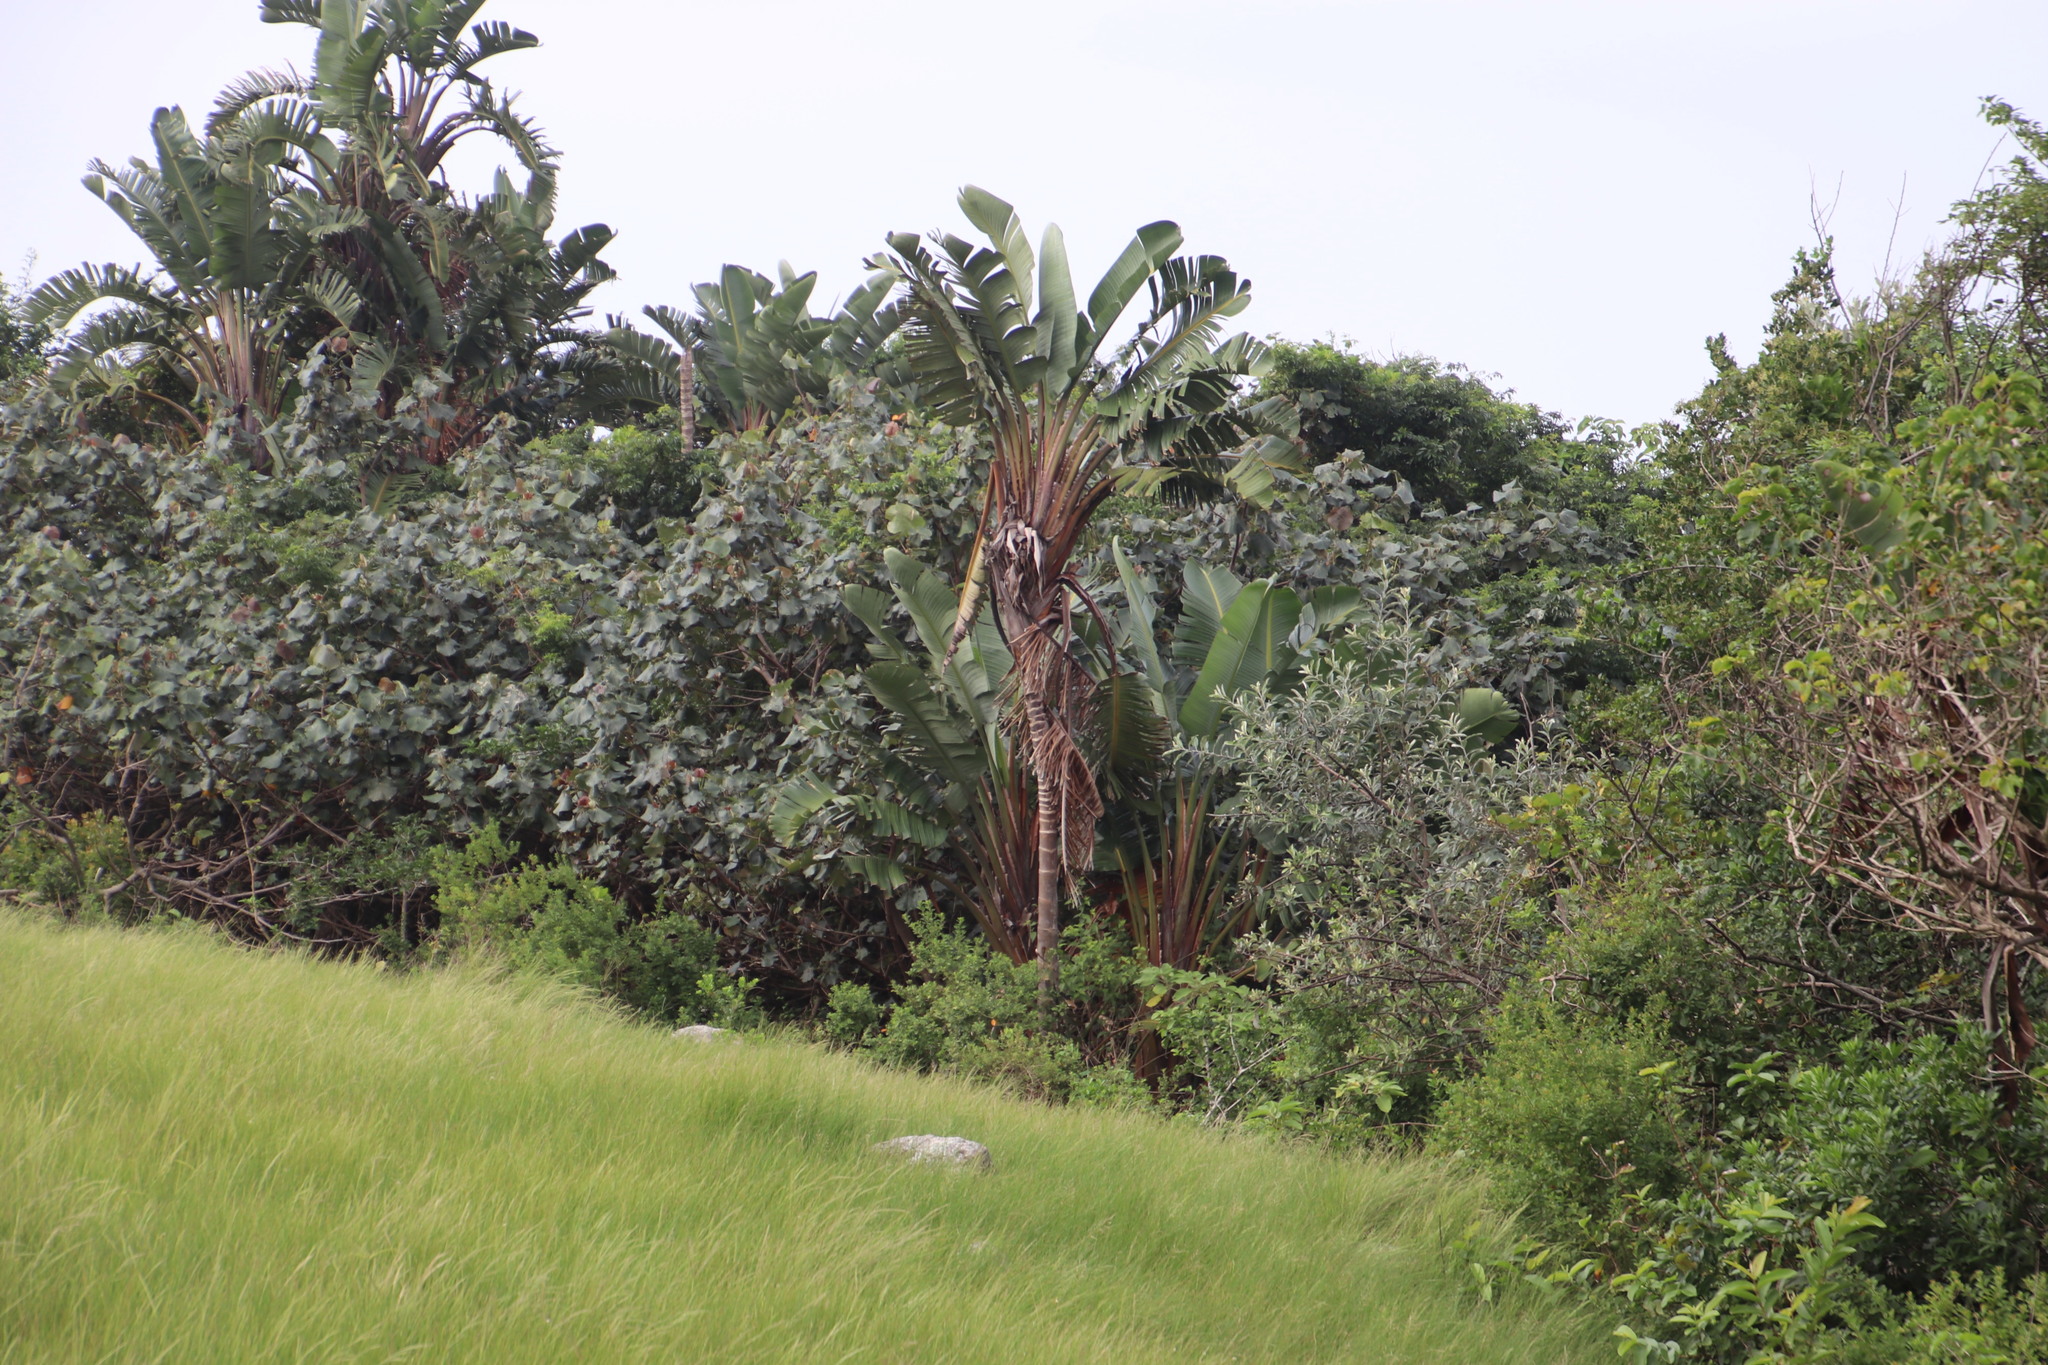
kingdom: Plantae
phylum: Tracheophyta
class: Liliopsida
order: Zingiberales
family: Strelitziaceae
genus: Strelitzia
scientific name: Strelitzia nicolai
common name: Bird-of-paradise tree
